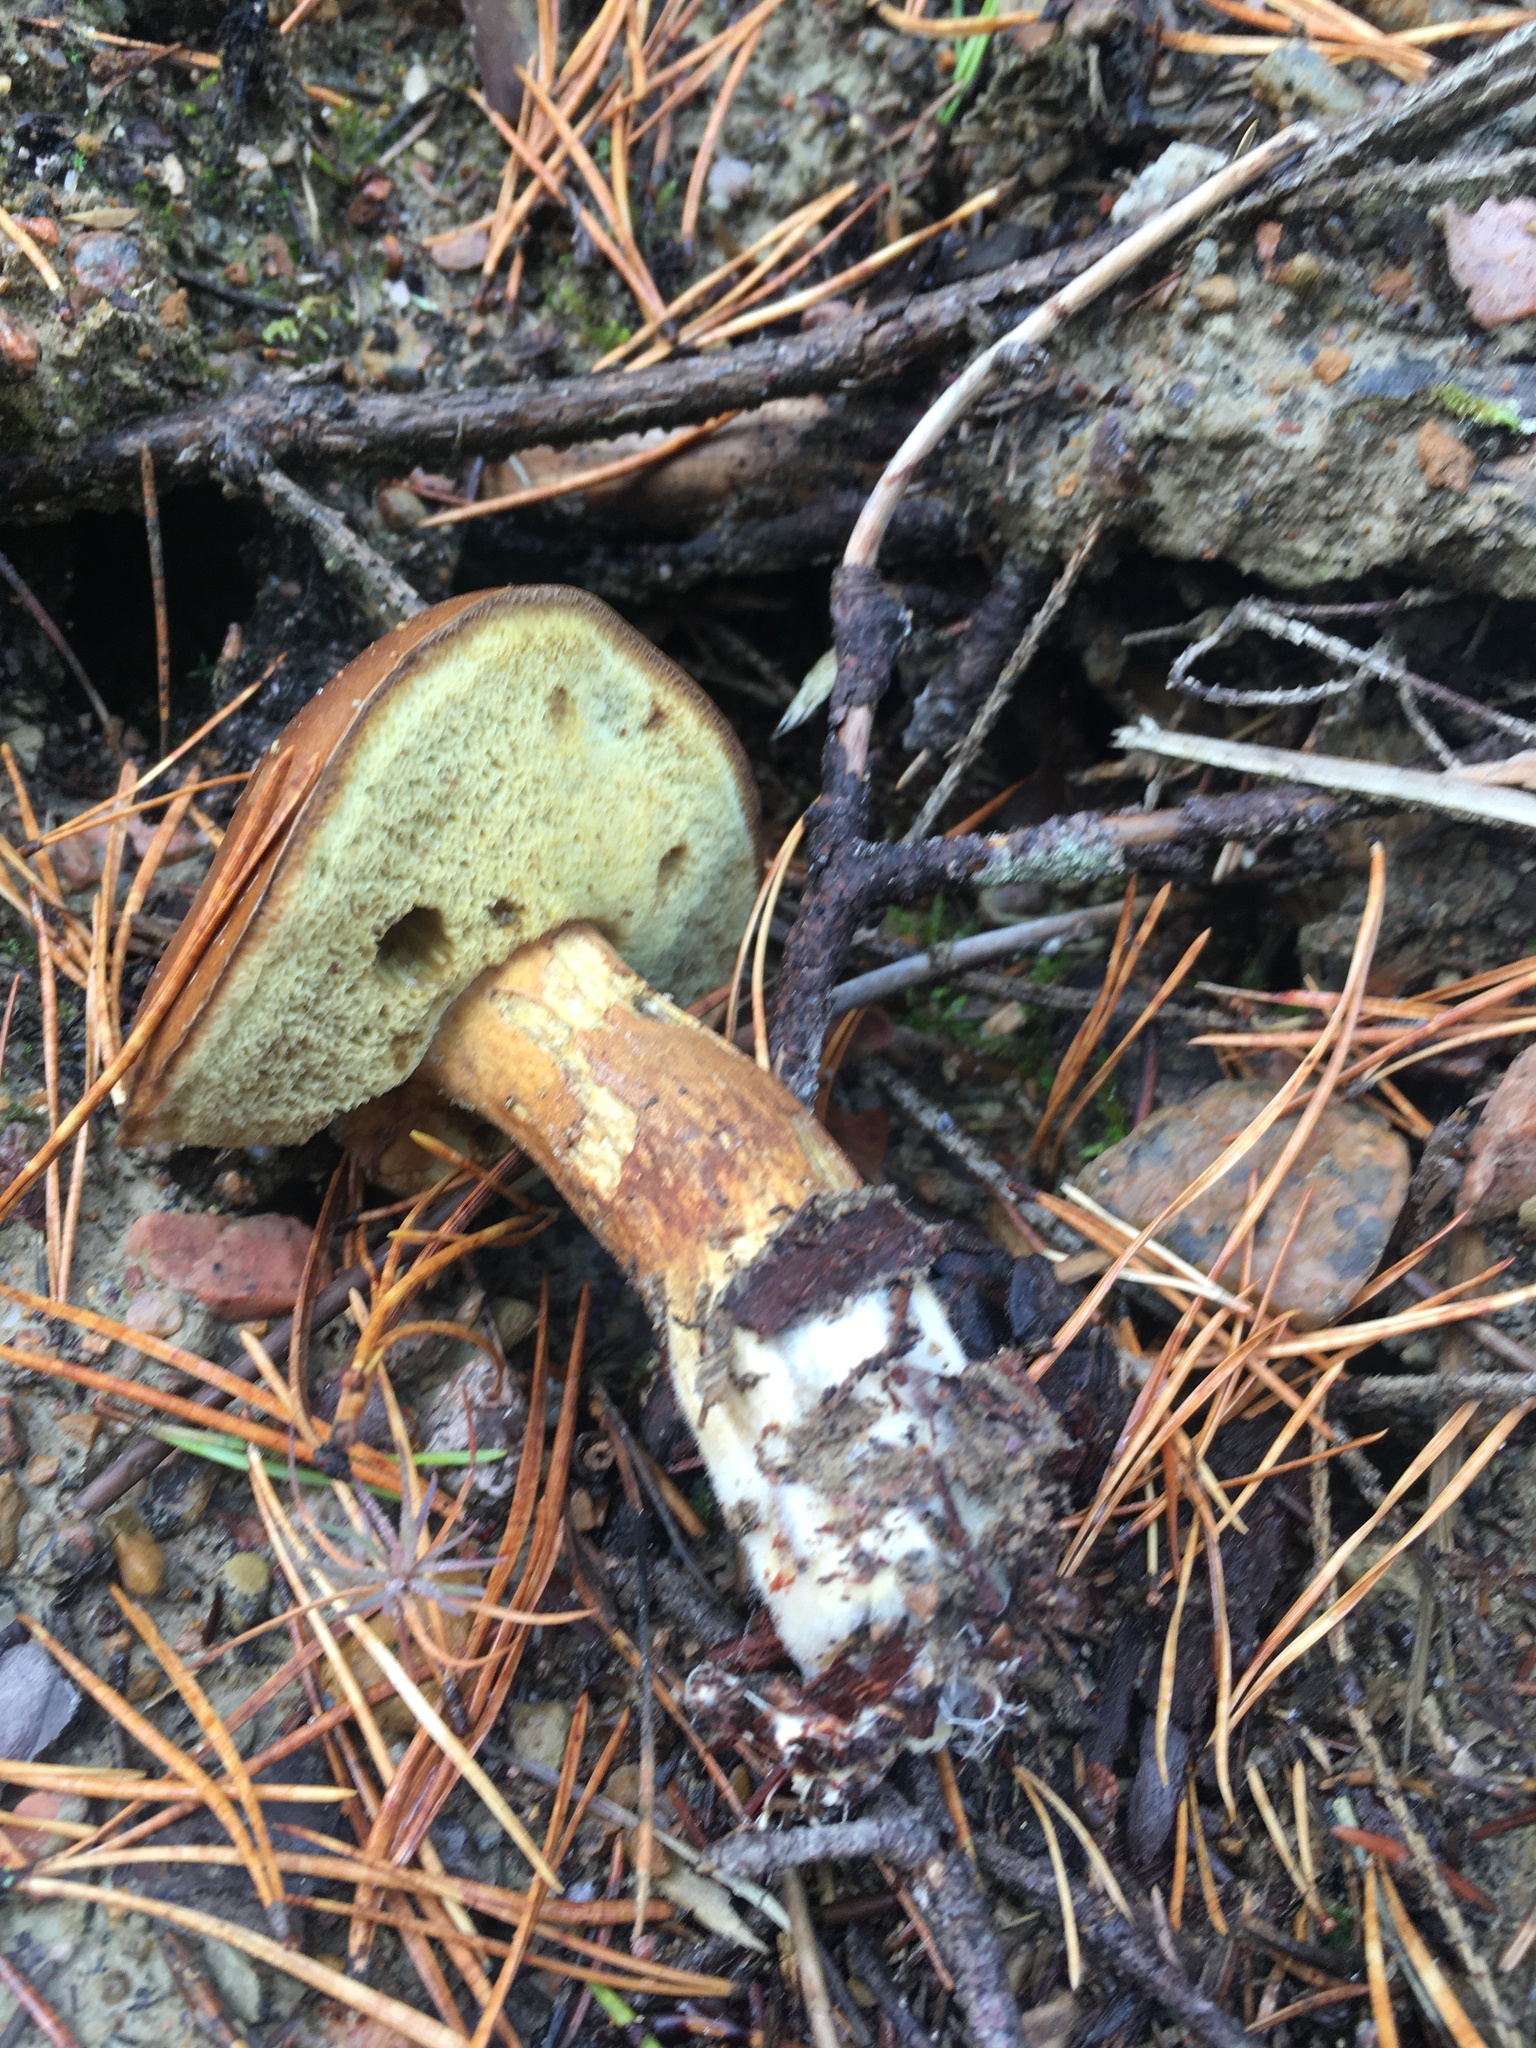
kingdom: Fungi
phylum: Basidiomycota
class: Agaricomycetes
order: Boletales
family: Boletaceae
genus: Imleria
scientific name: Imleria badia
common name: Bay bolete
